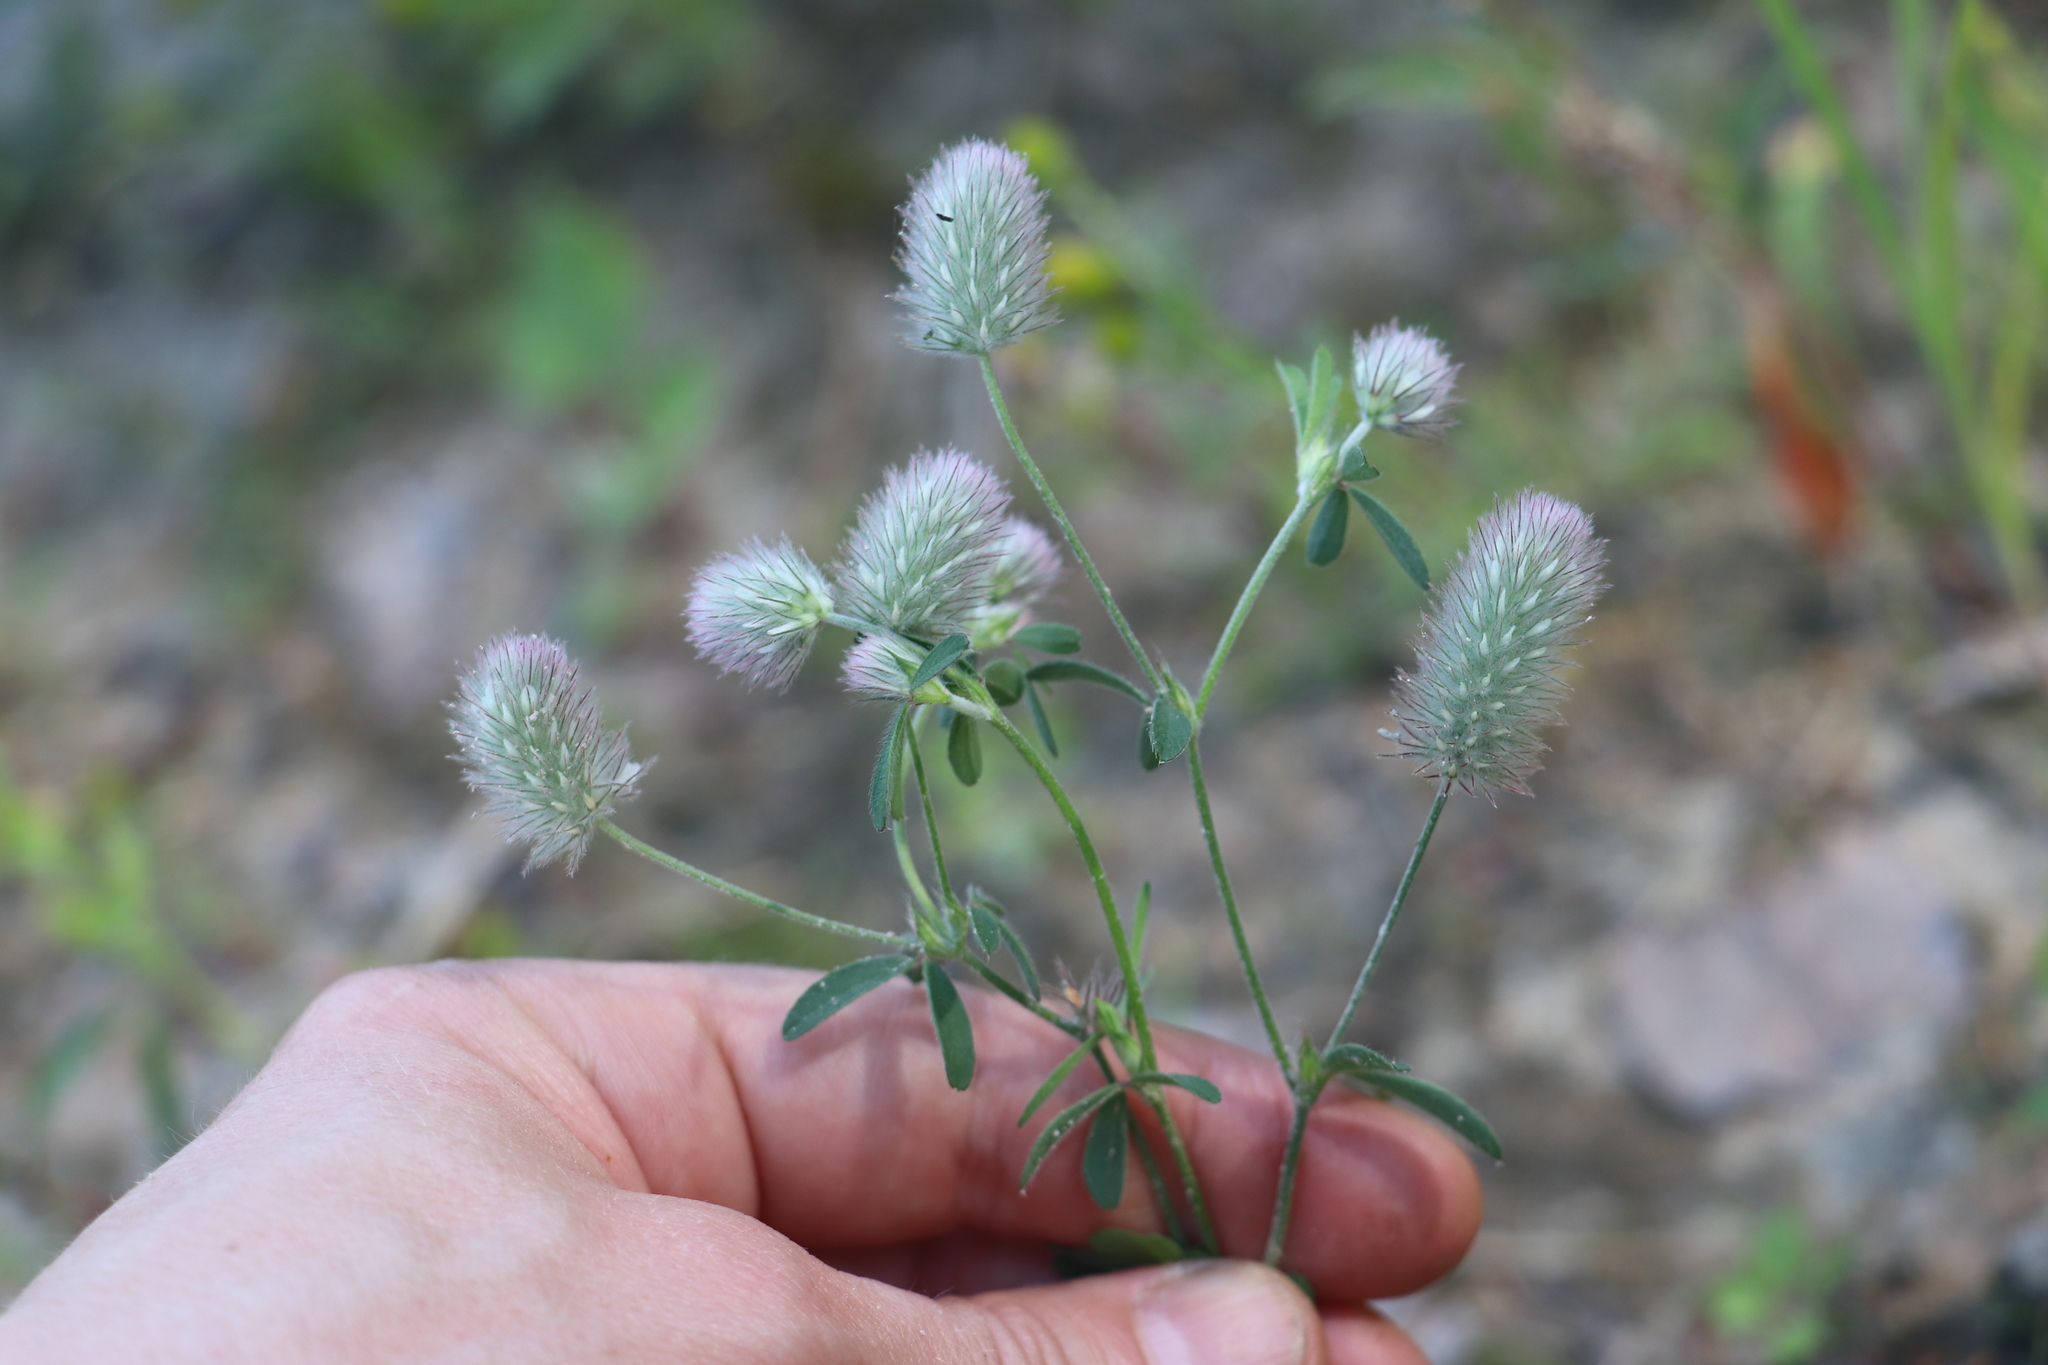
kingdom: Plantae
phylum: Tracheophyta
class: Magnoliopsida
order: Fabales
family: Fabaceae
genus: Trifolium
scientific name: Trifolium arvense
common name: Hare's-foot clover
